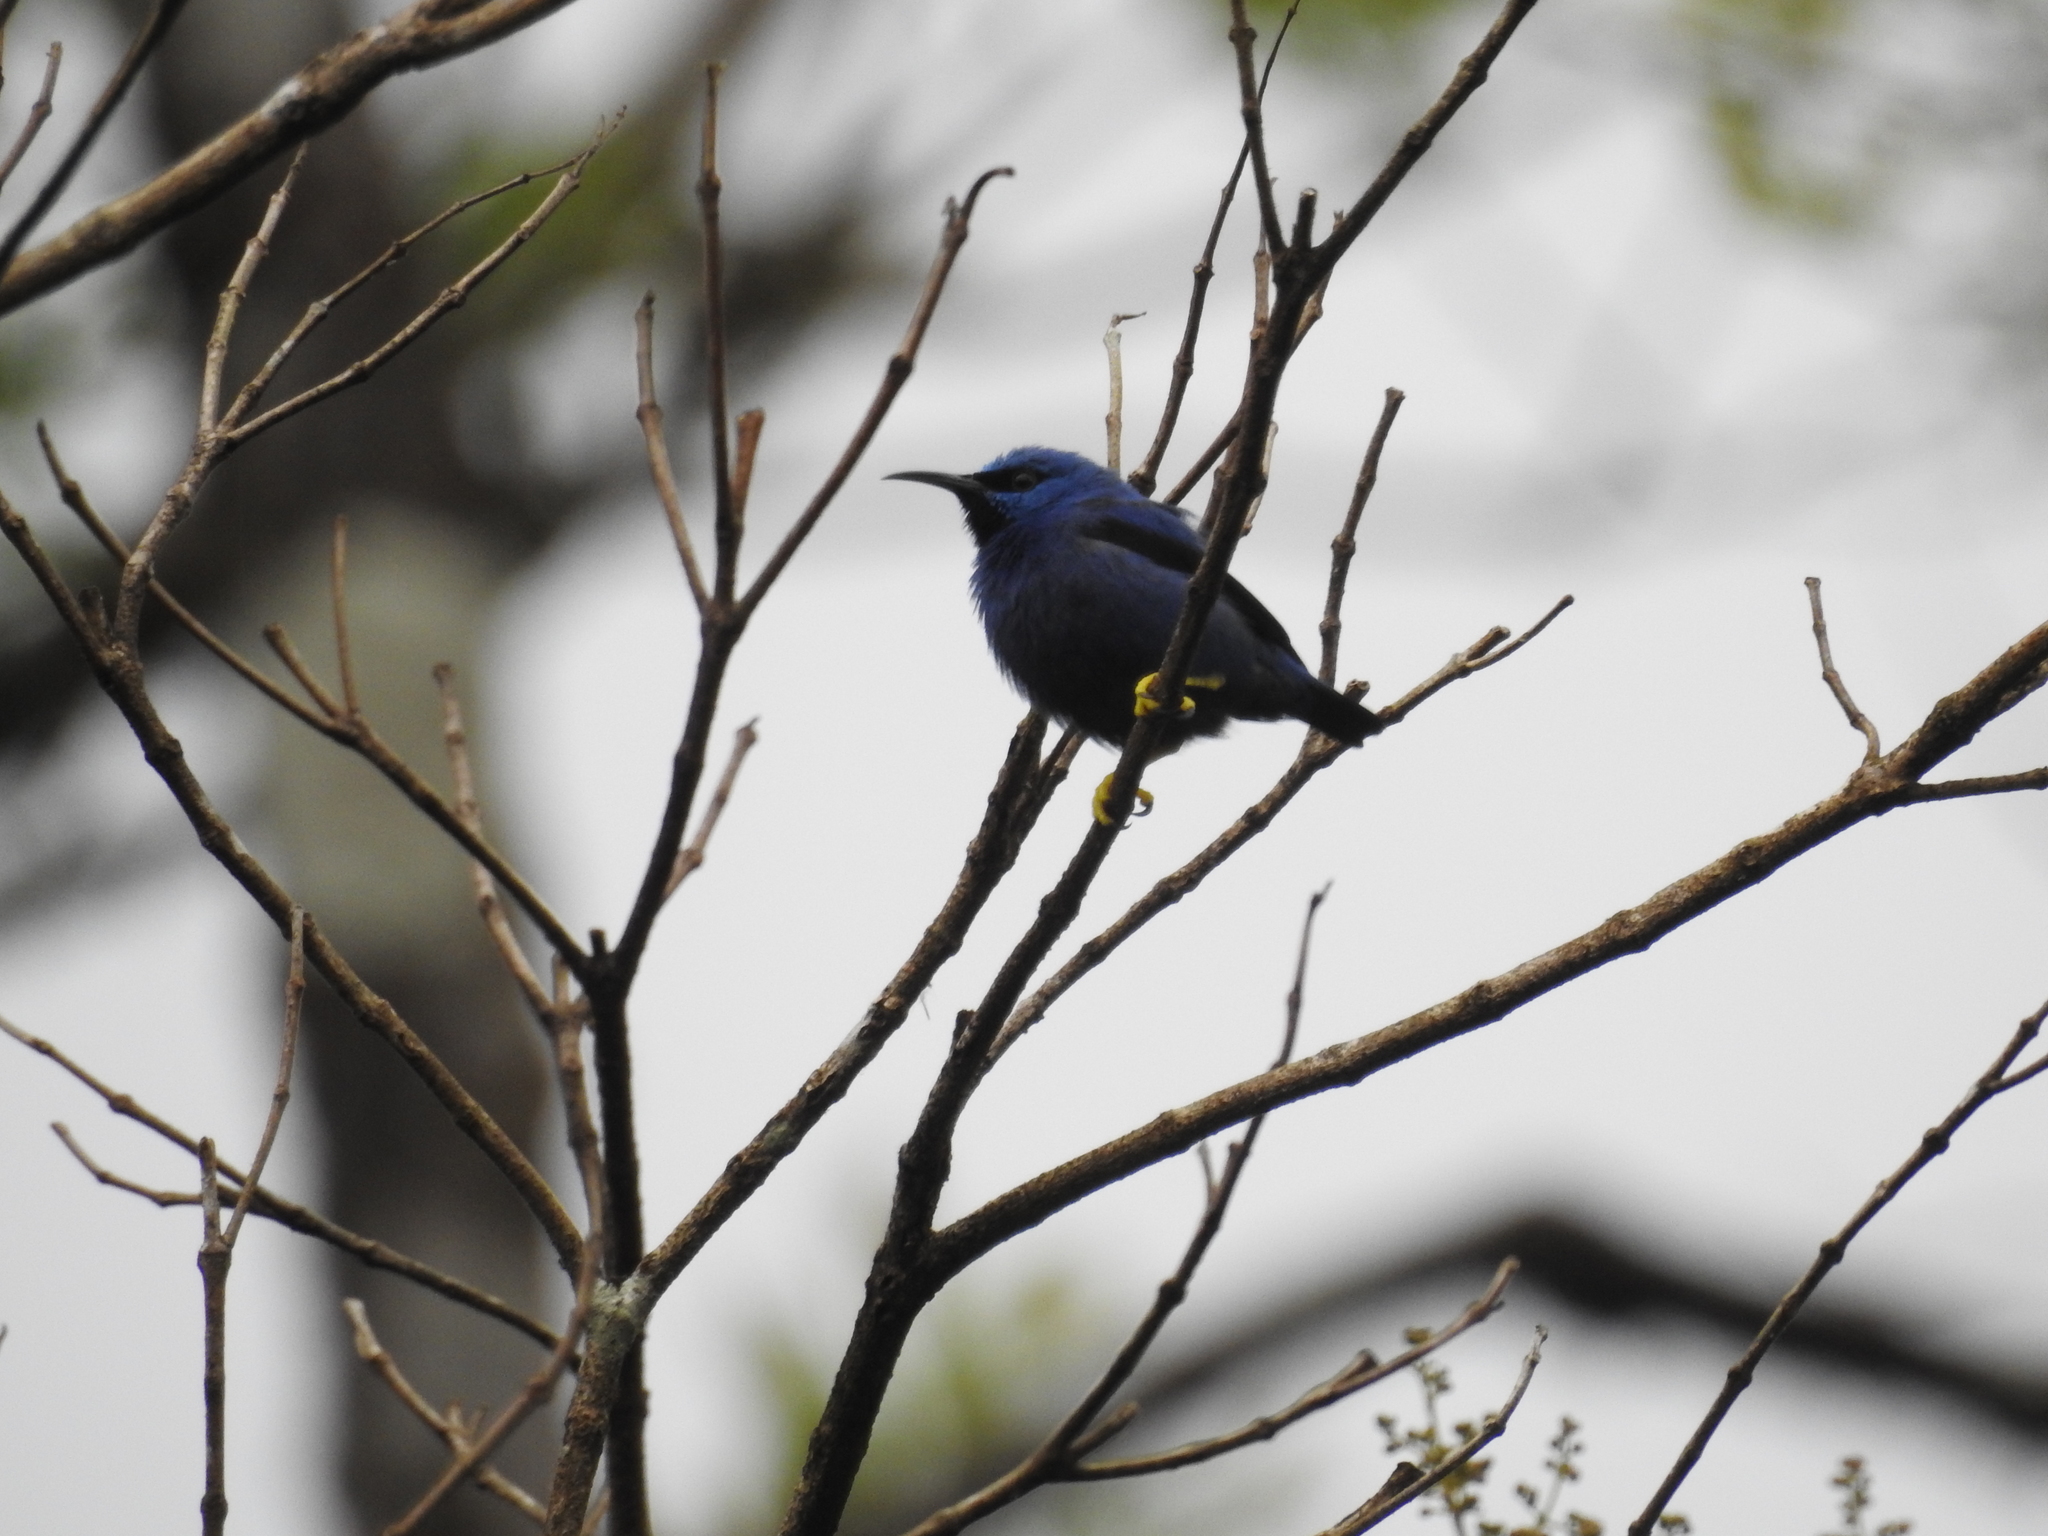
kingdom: Animalia
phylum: Chordata
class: Aves
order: Passeriformes
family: Thraupidae
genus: Cyanerpes
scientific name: Cyanerpes lucidus
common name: Shining honeycreeper
